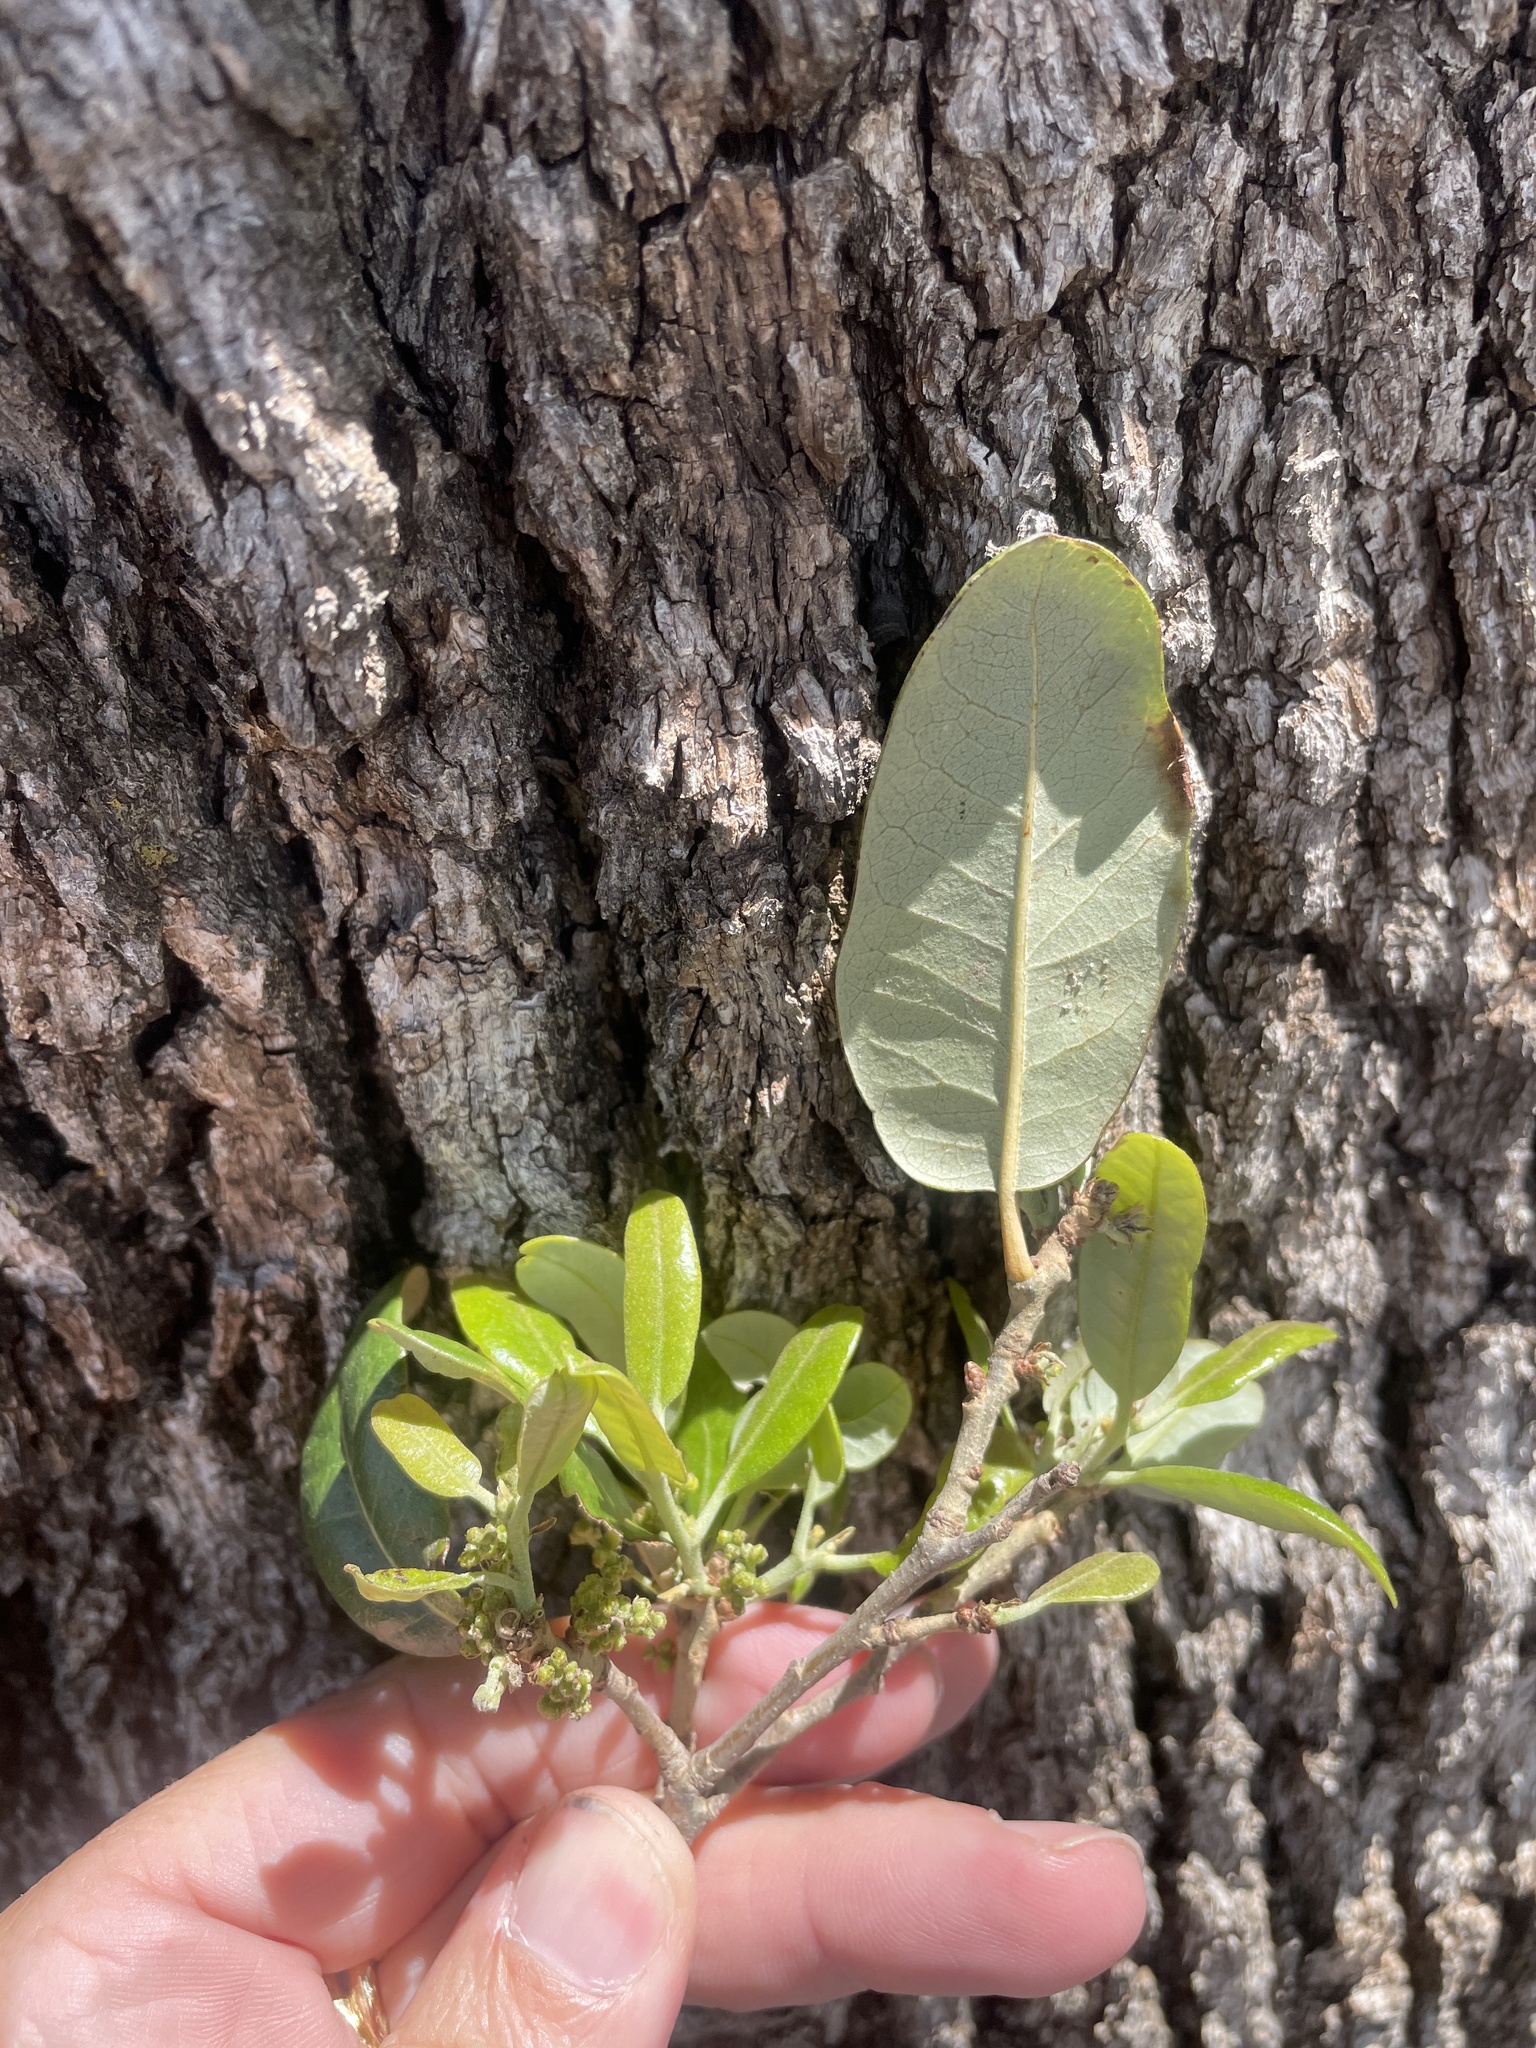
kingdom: Plantae
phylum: Tracheophyta
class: Magnoliopsida
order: Fagales
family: Fagaceae
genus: Quercus
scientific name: Quercus fusiformis
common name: Texas live oak
